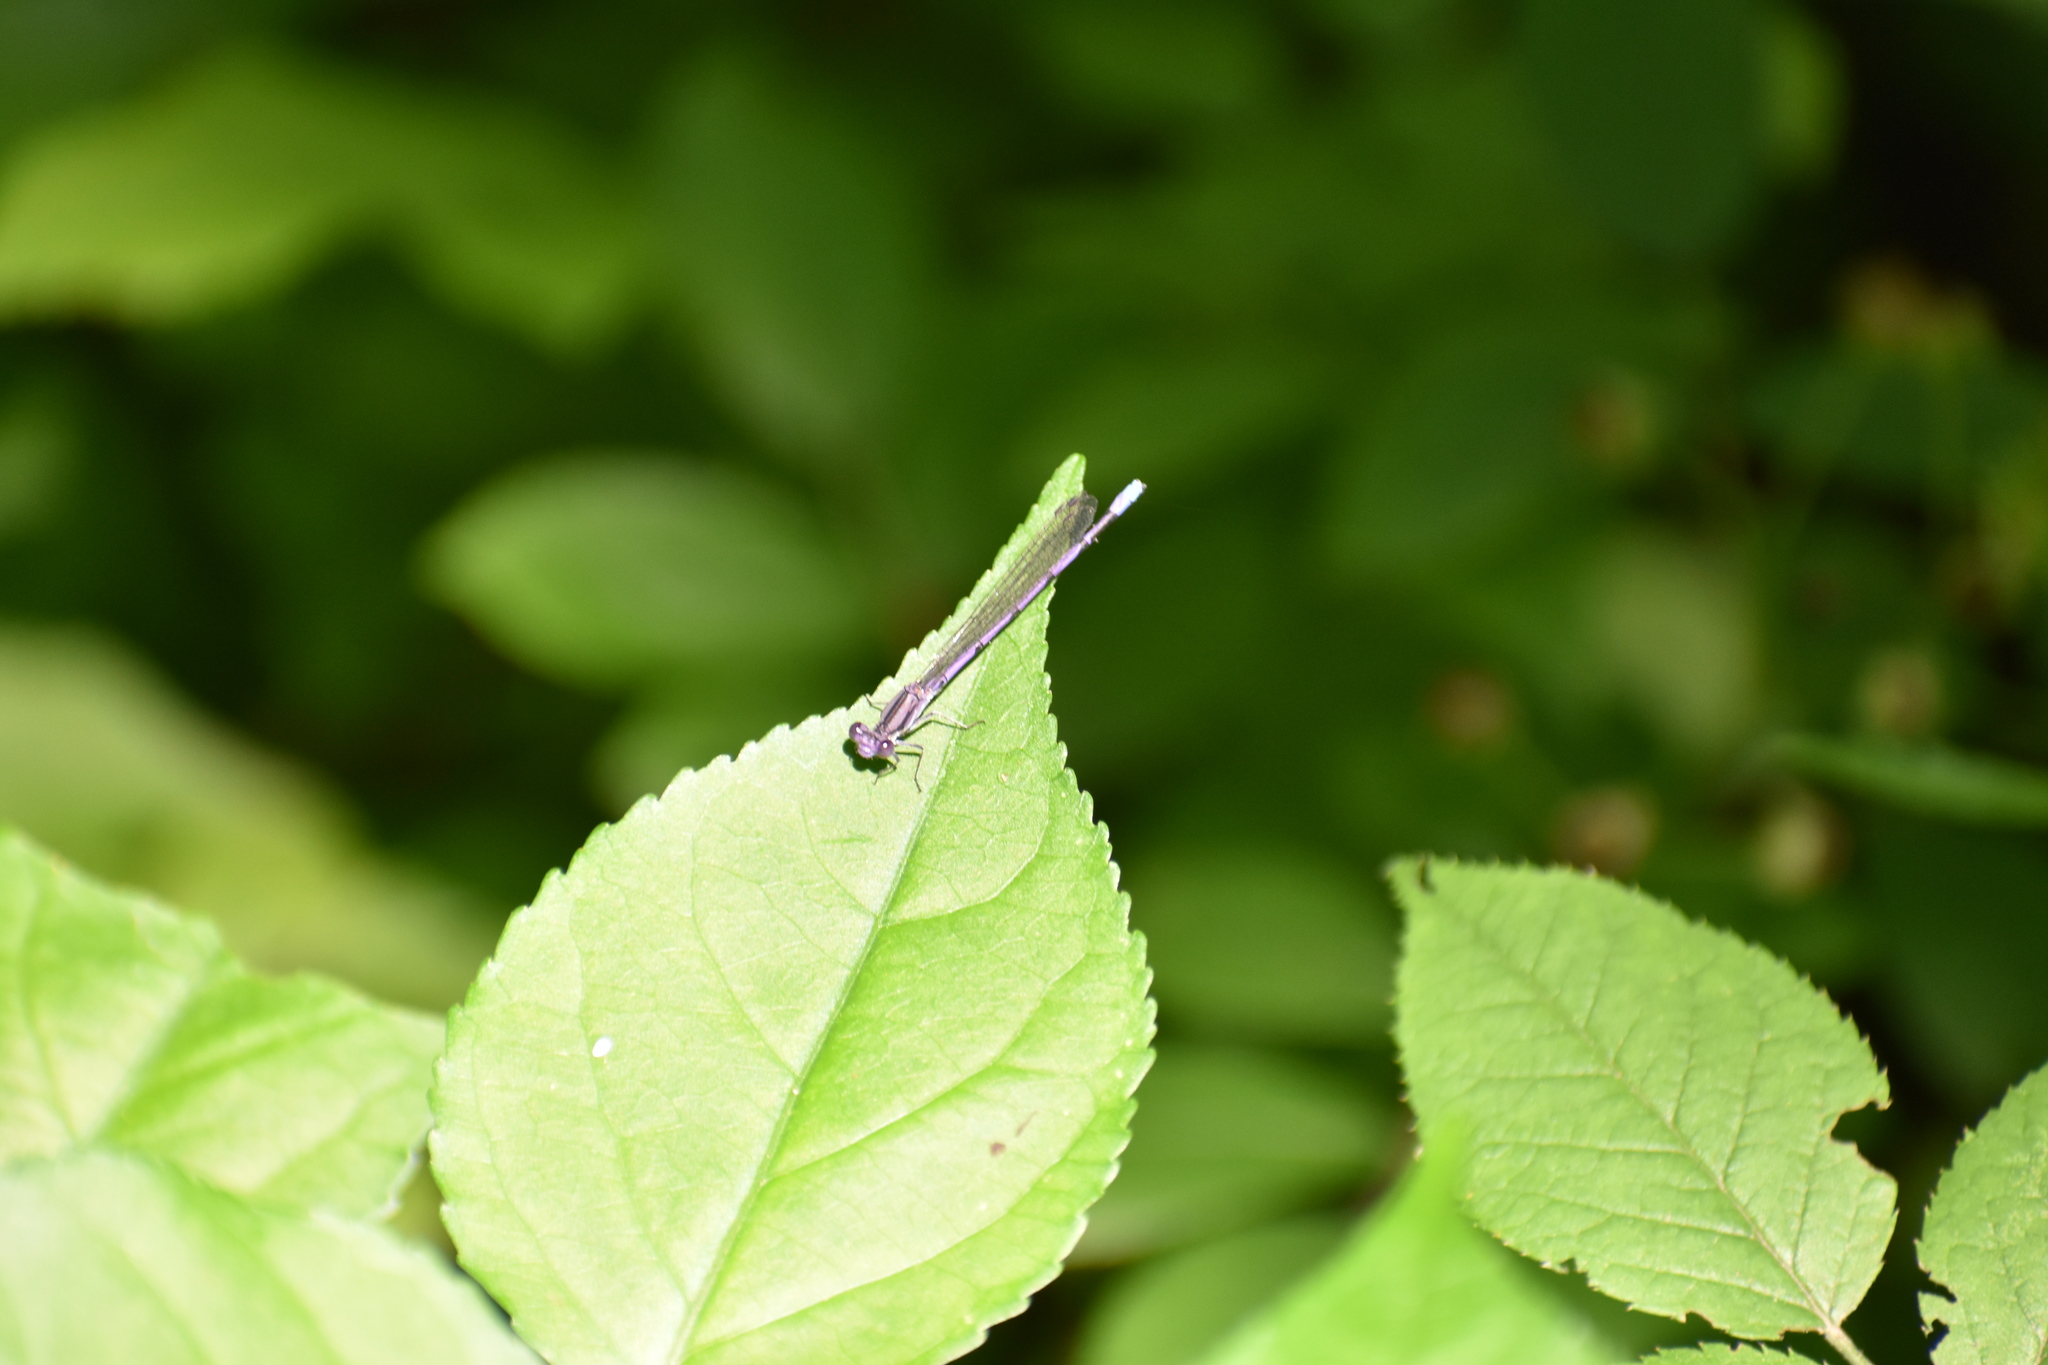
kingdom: Animalia
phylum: Arthropoda
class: Insecta
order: Odonata
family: Coenagrionidae
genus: Argia
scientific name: Argia fumipennis
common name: Variable dancer
